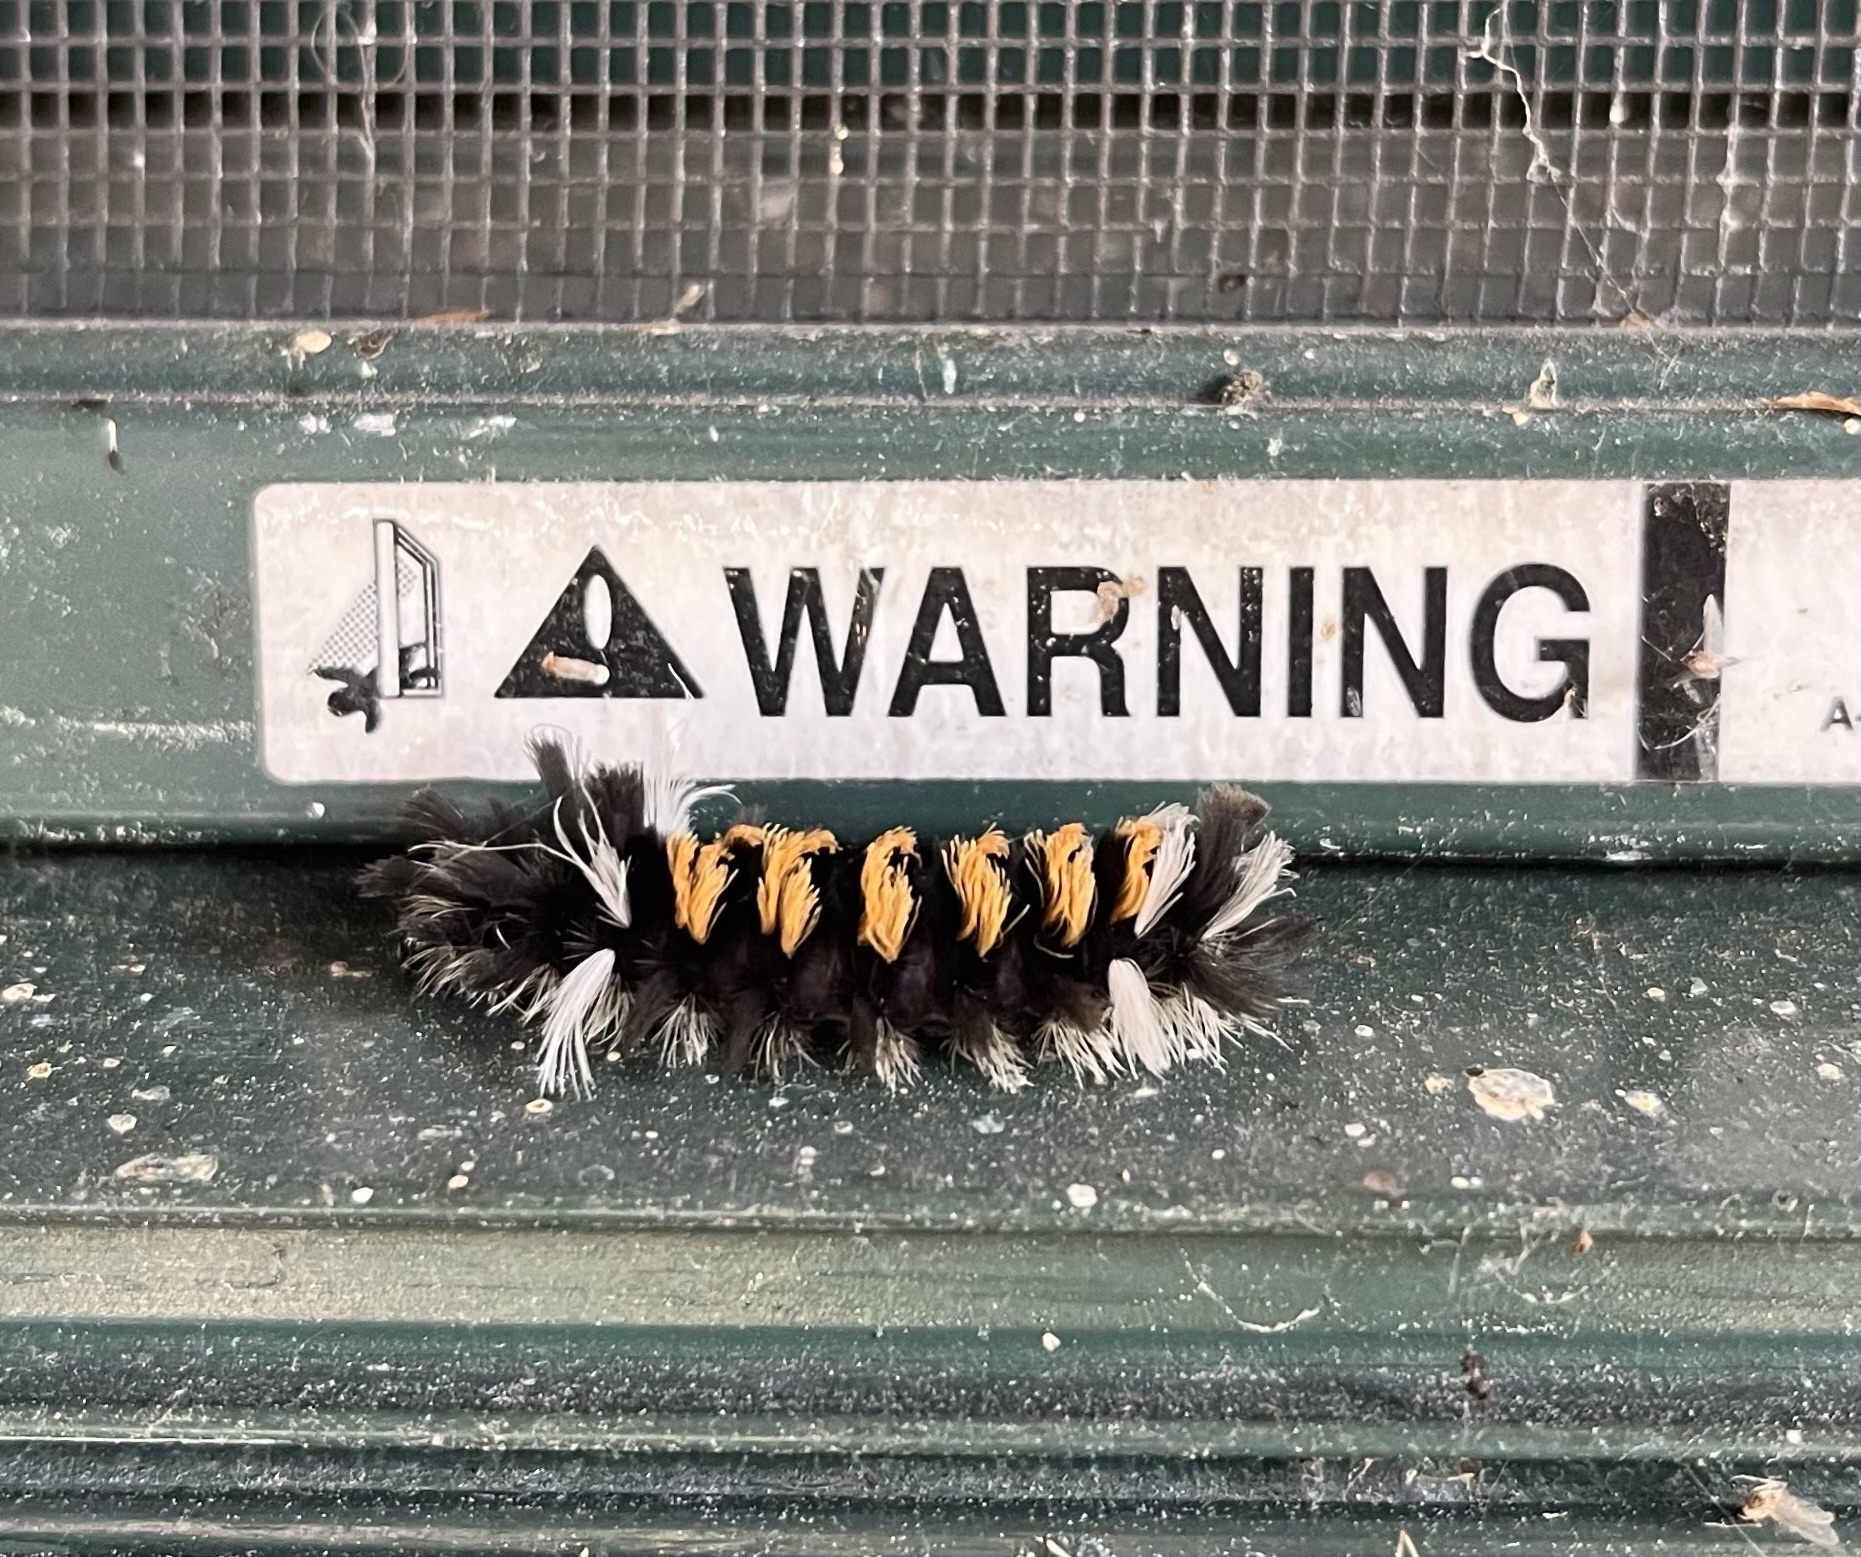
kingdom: Animalia
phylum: Arthropoda
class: Insecta
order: Lepidoptera
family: Erebidae
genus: Euchaetes
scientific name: Euchaetes egle
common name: Milkweed tussock moth
